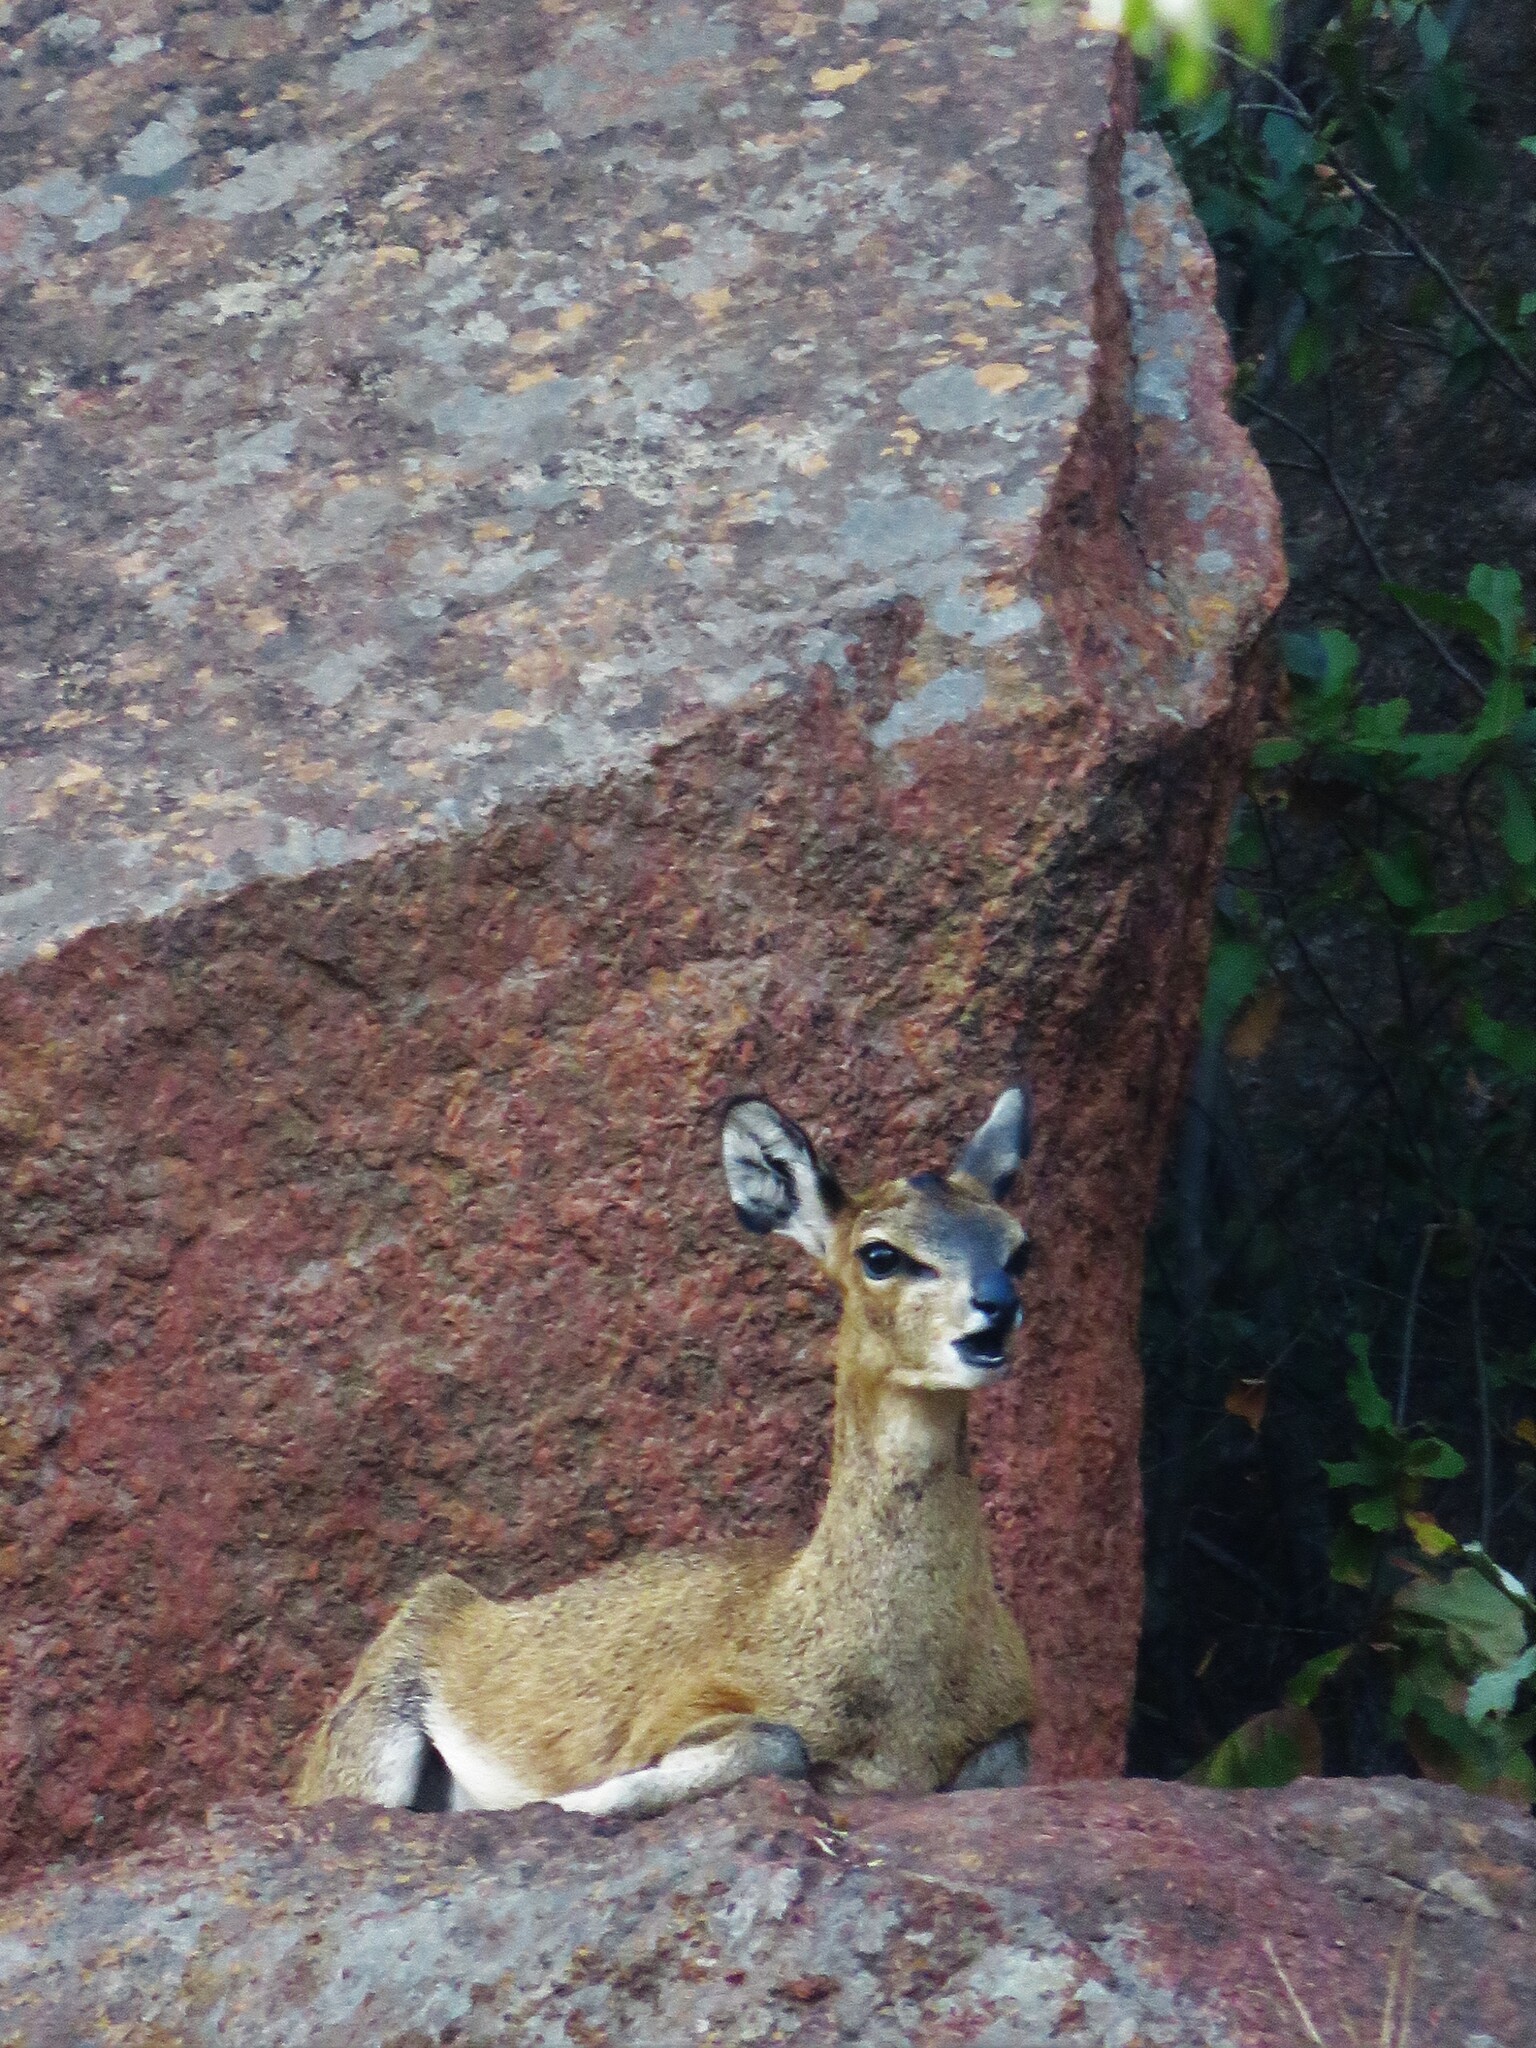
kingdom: Animalia
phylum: Chordata
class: Mammalia
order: Artiodactyla
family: Bovidae
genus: Oreotragus
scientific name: Oreotragus oreotragus
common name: Klipspringer
